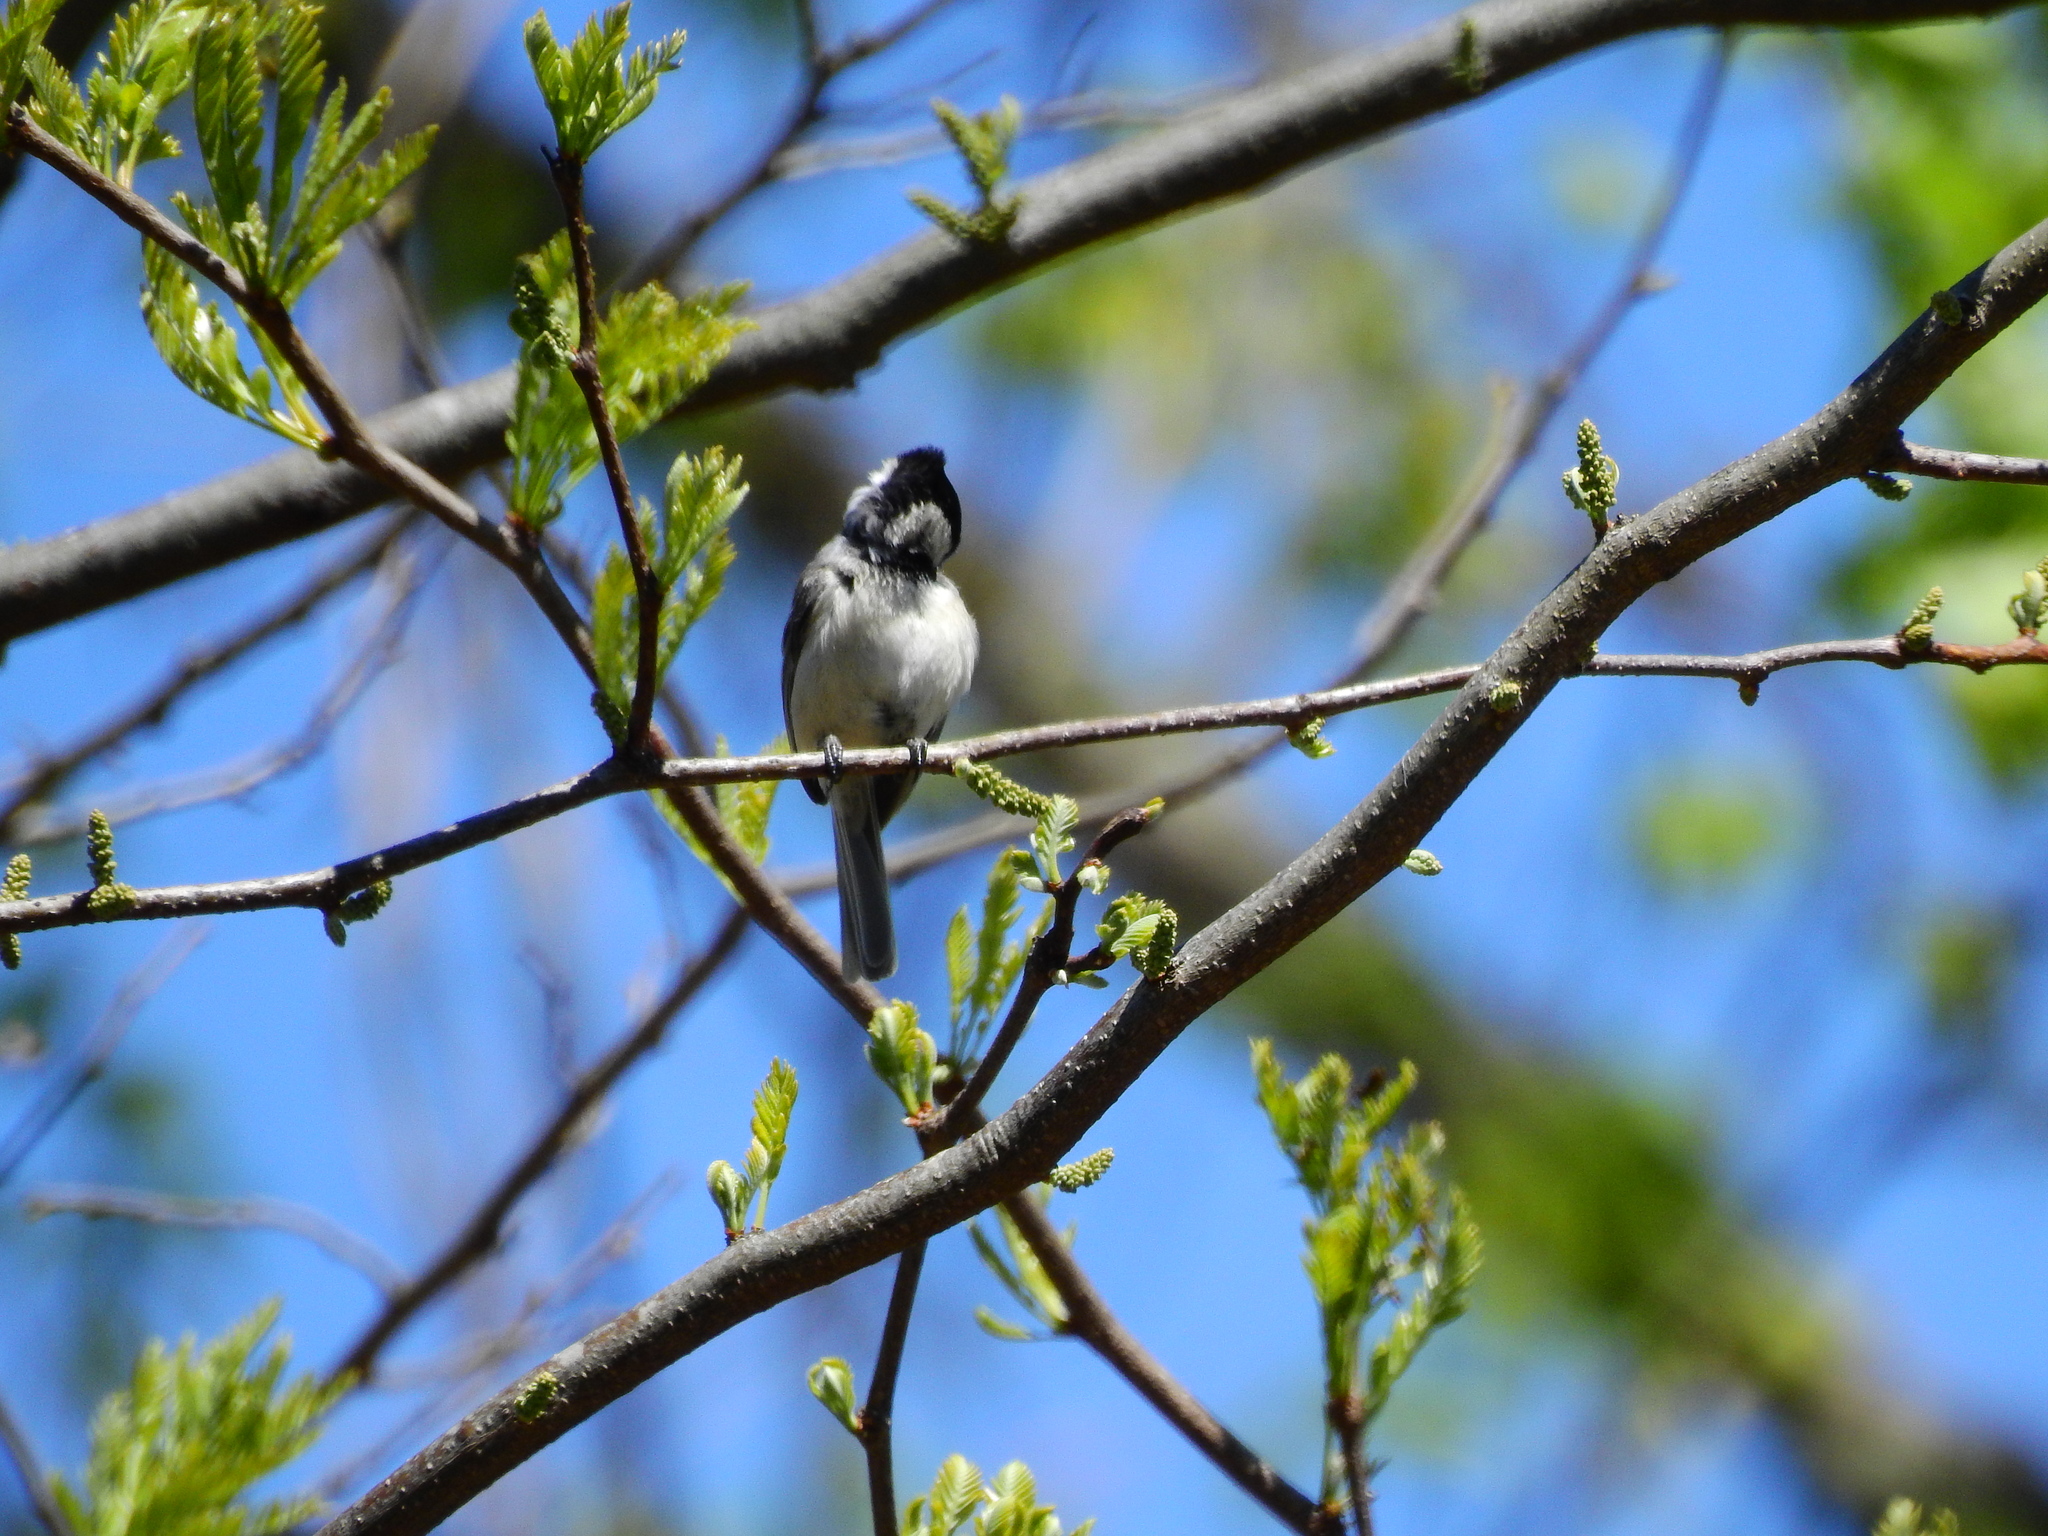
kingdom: Animalia
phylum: Chordata
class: Aves
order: Passeriformes
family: Paridae
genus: Poecile
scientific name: Poecile carolinensis
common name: Carolina chickadee
